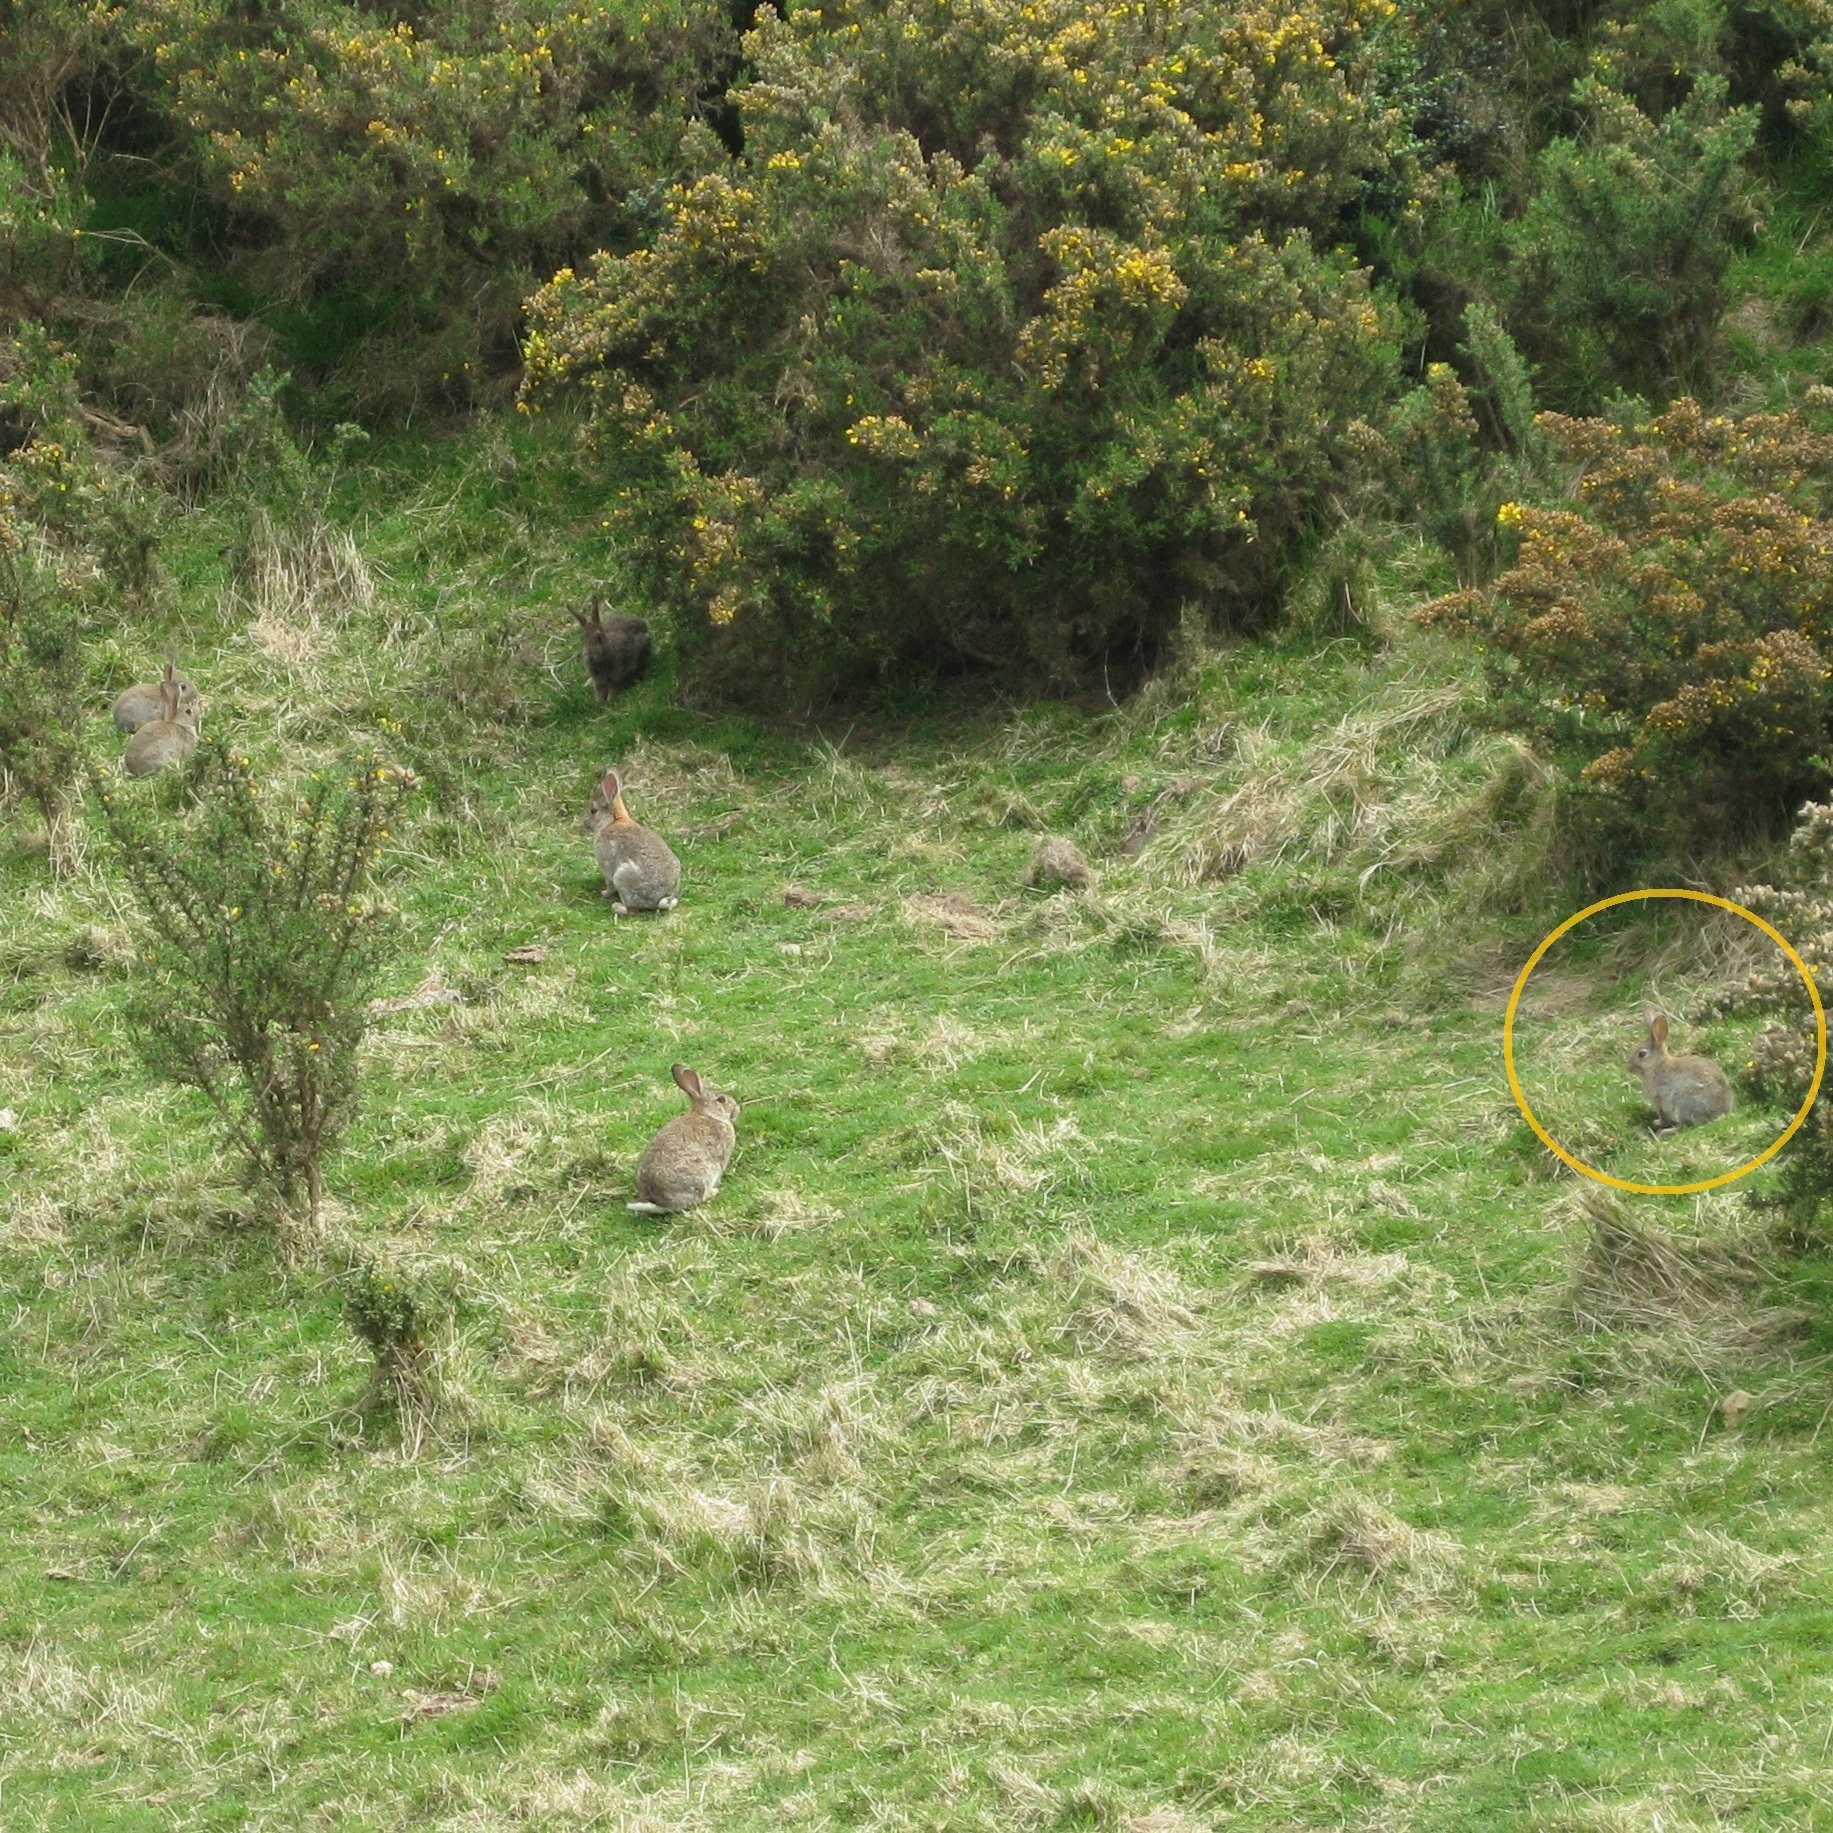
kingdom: Animalia
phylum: Chordata
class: Mammalia
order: Lagomorpha
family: Leporidae
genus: Oryctolagus
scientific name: Oryctolagus cuniculus
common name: European rabbit
